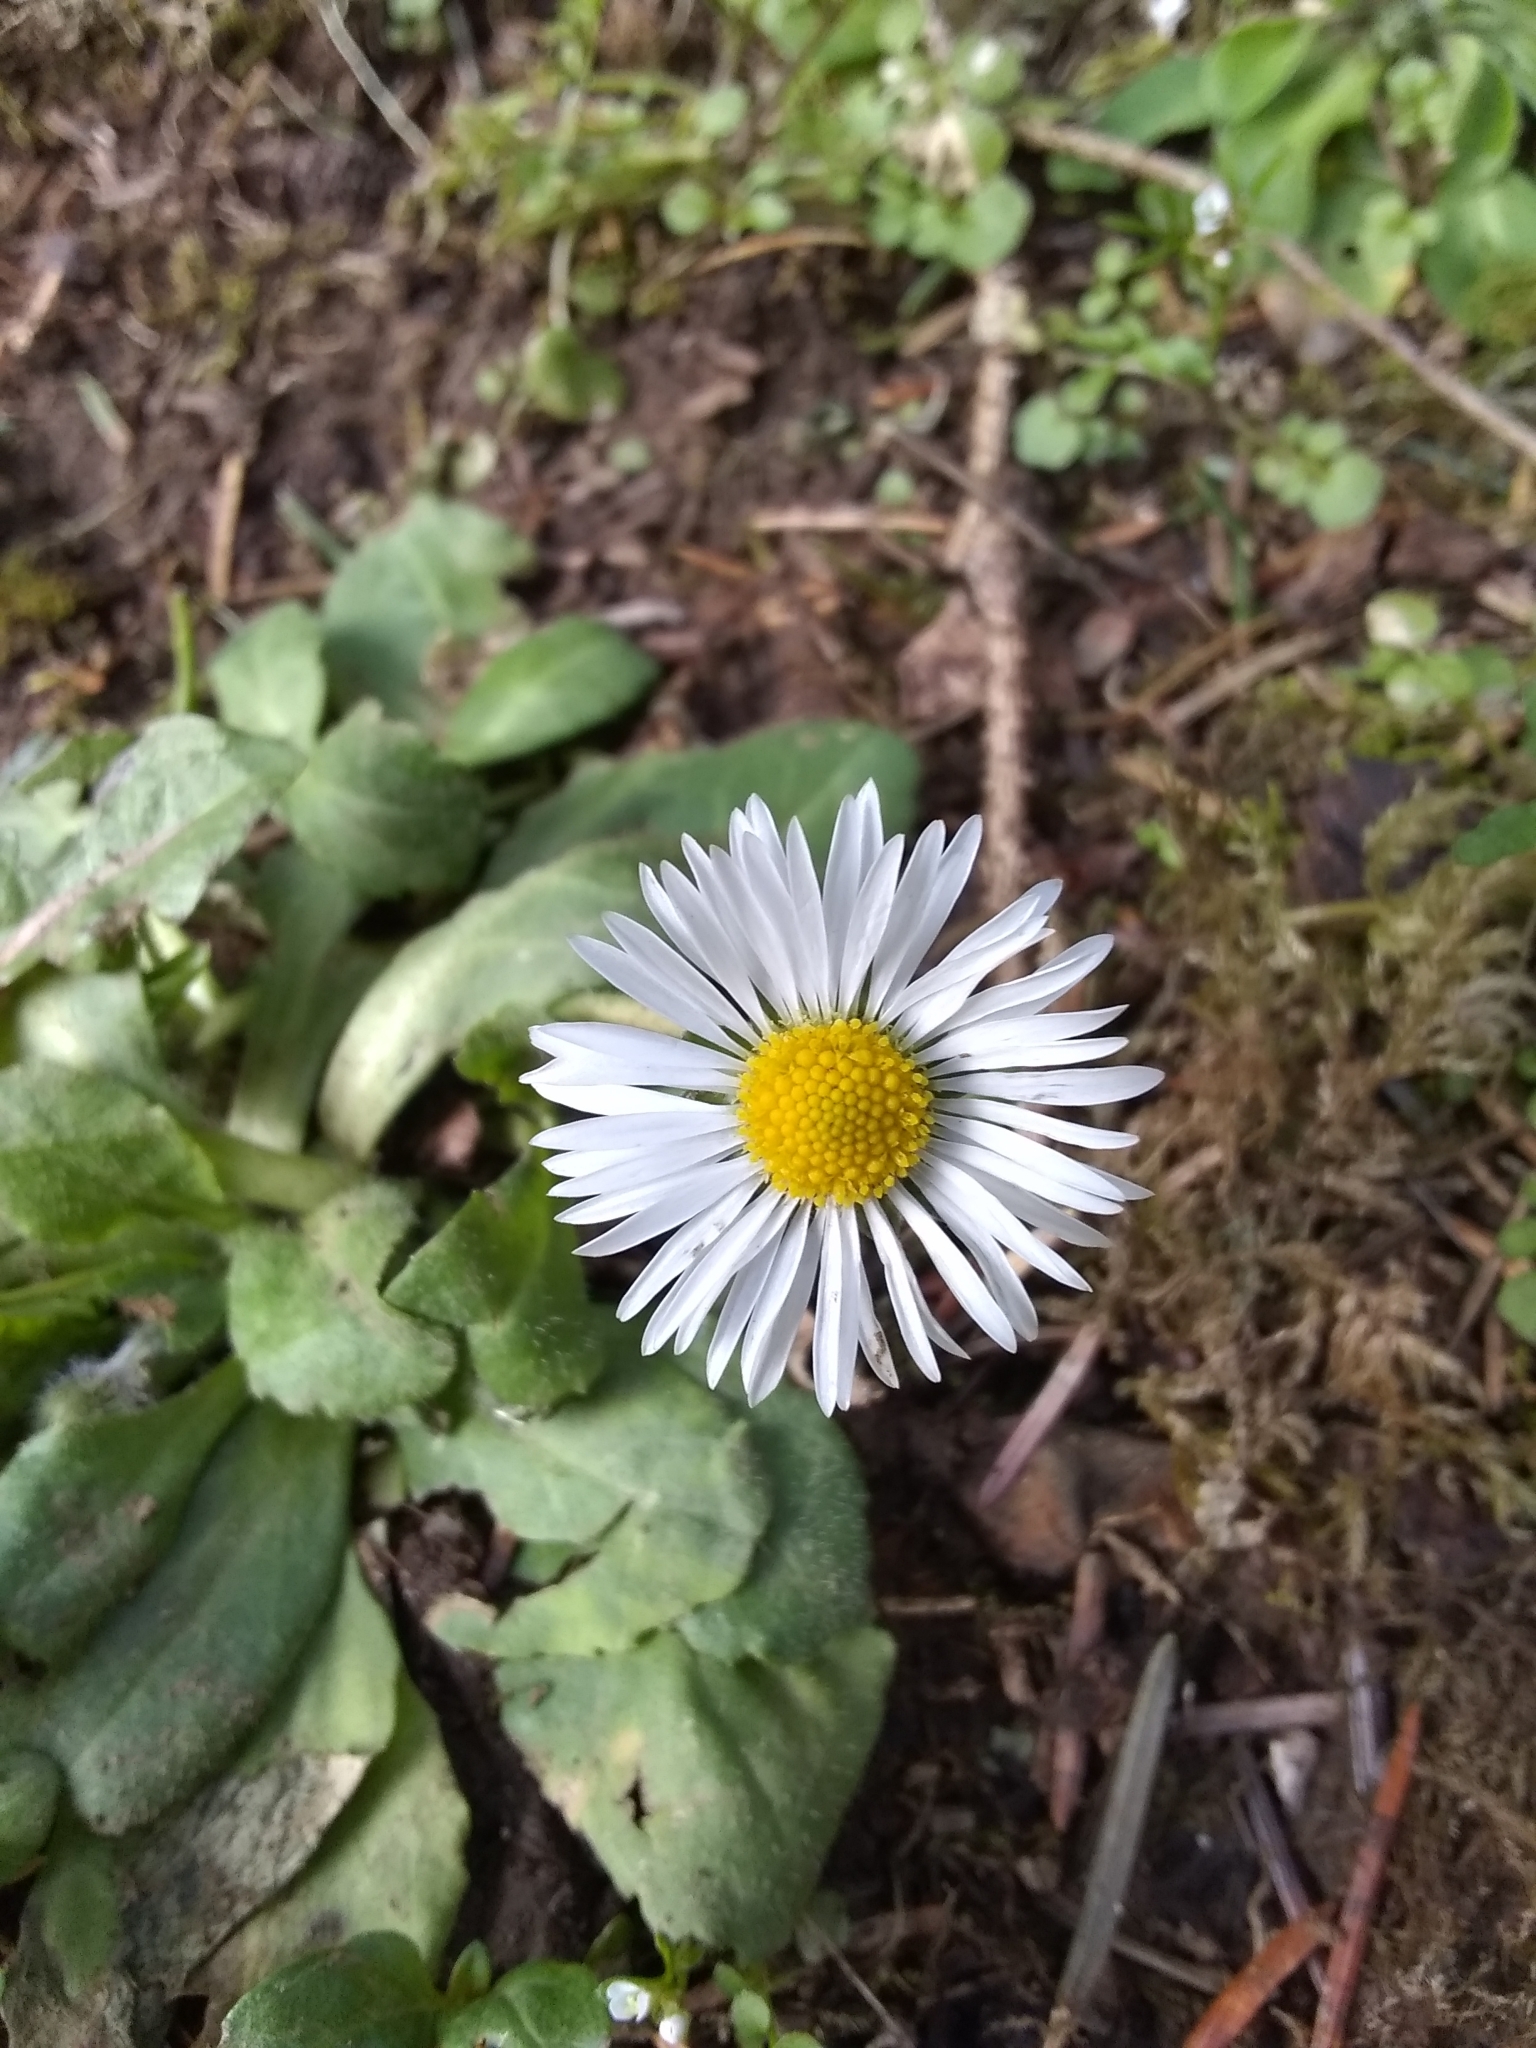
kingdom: Plantae
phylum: Tracheophyta
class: Magnoliopsida
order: Asterales
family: Asteraceae
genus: Bellis
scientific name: Bellis perennis
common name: Lawndaisy
